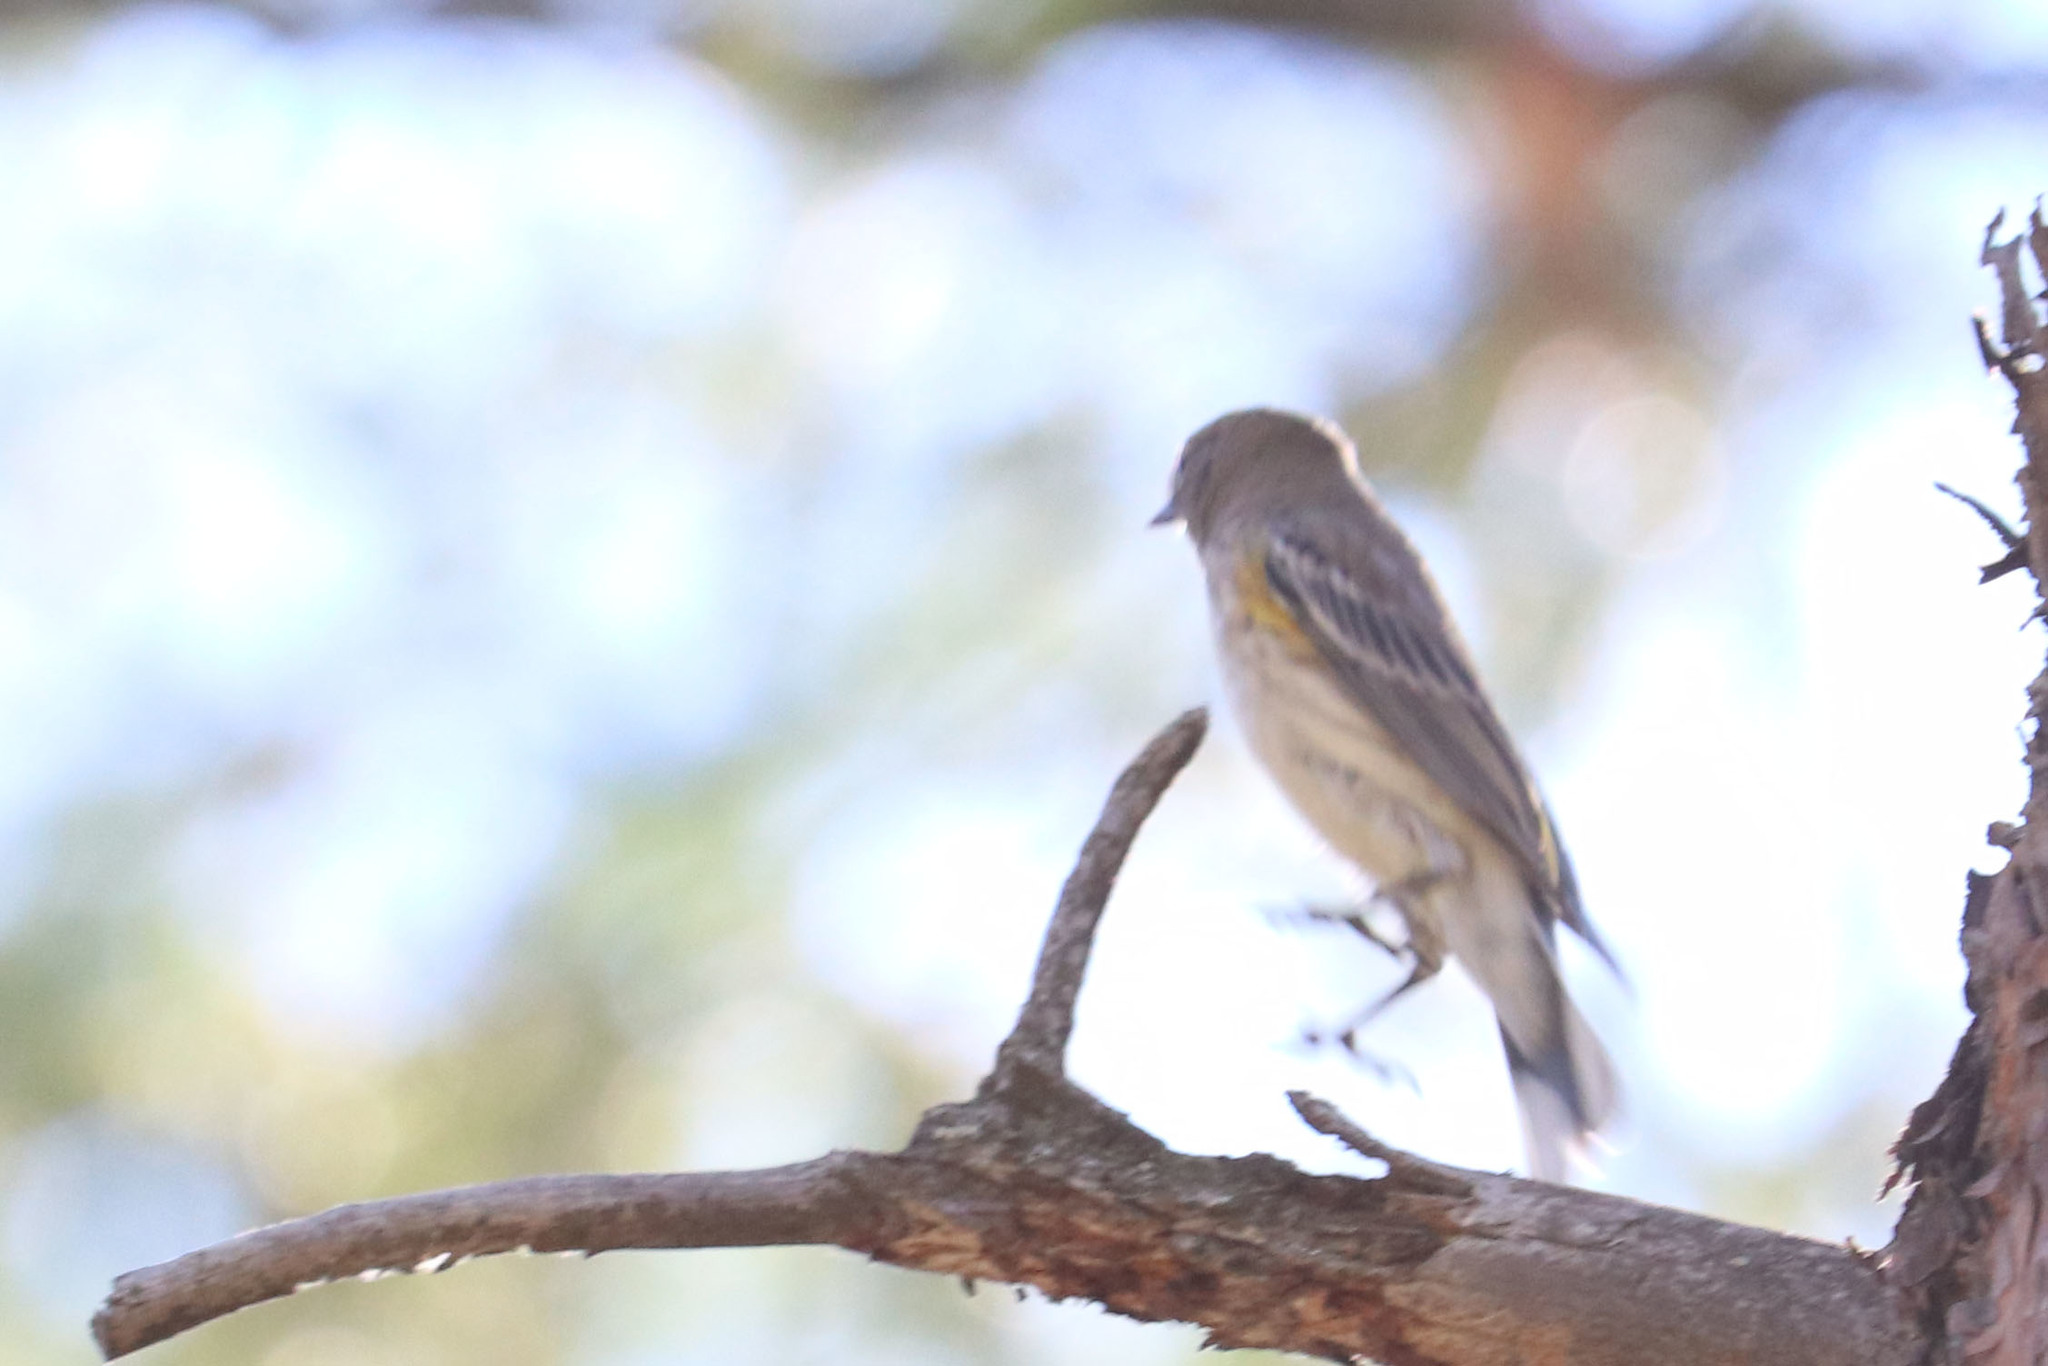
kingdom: Animalia
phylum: Chordata
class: Aves
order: Passeriformes
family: Parulidae
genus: Setophaga
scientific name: Setophaga coronata
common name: Myrtle warbler
